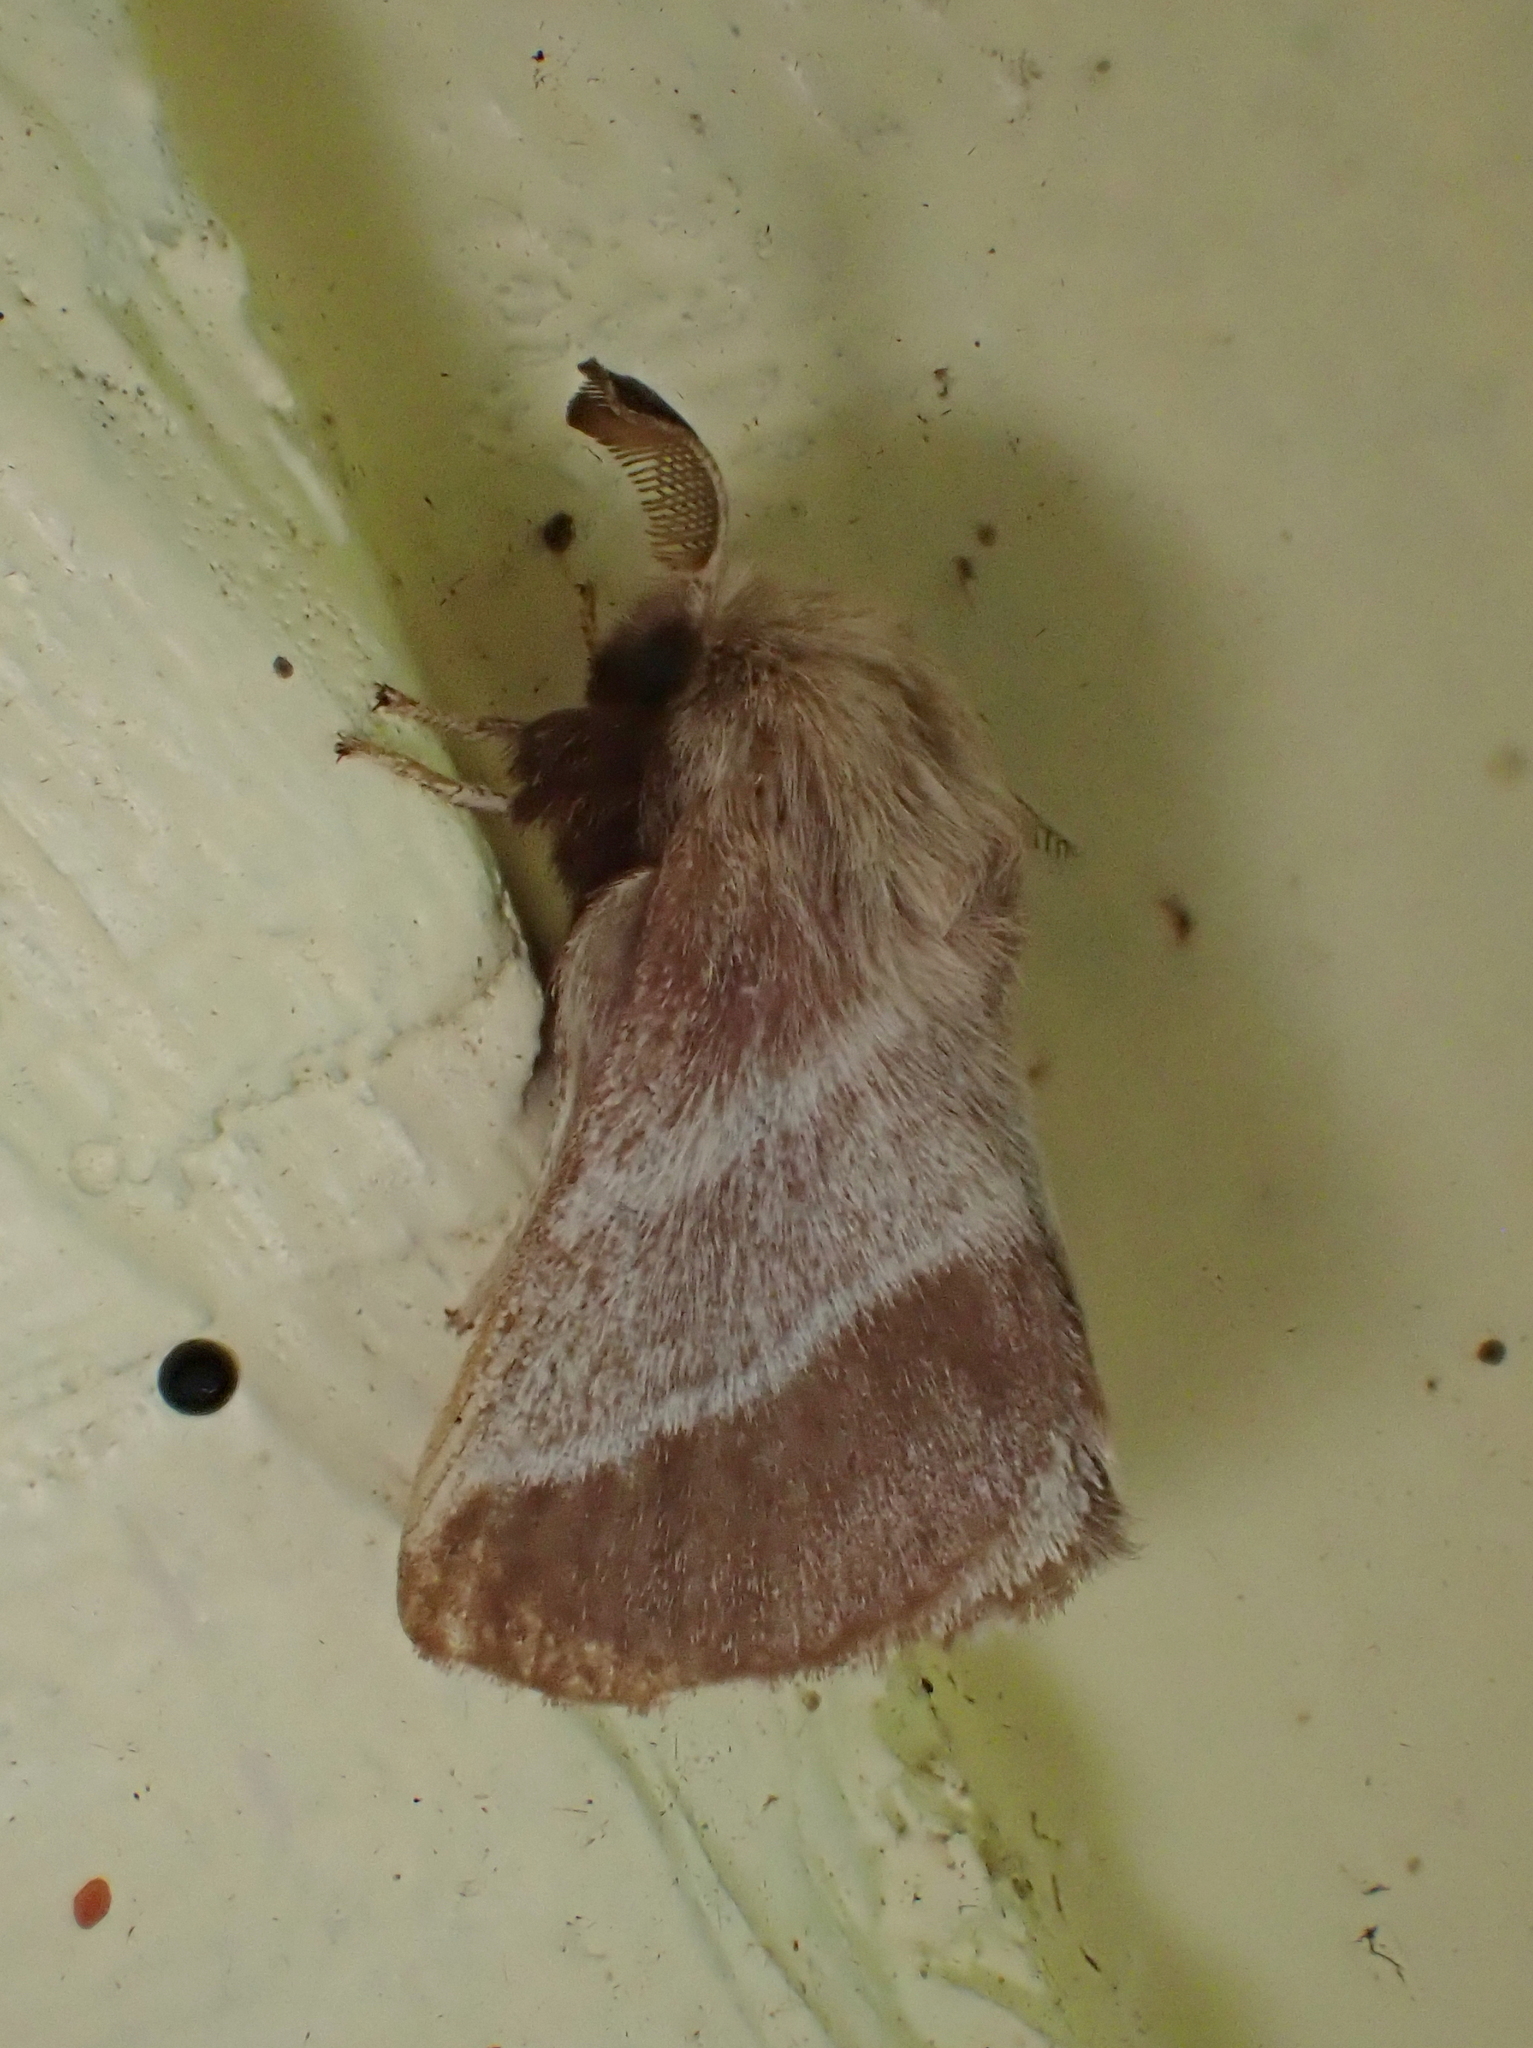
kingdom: Animalia
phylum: Arthropoda
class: Insecta
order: Lepidoptera
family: Lasiocampidae
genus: Malacosoma
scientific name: Malacosoma americana
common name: Eastern tent caterpillar moth
